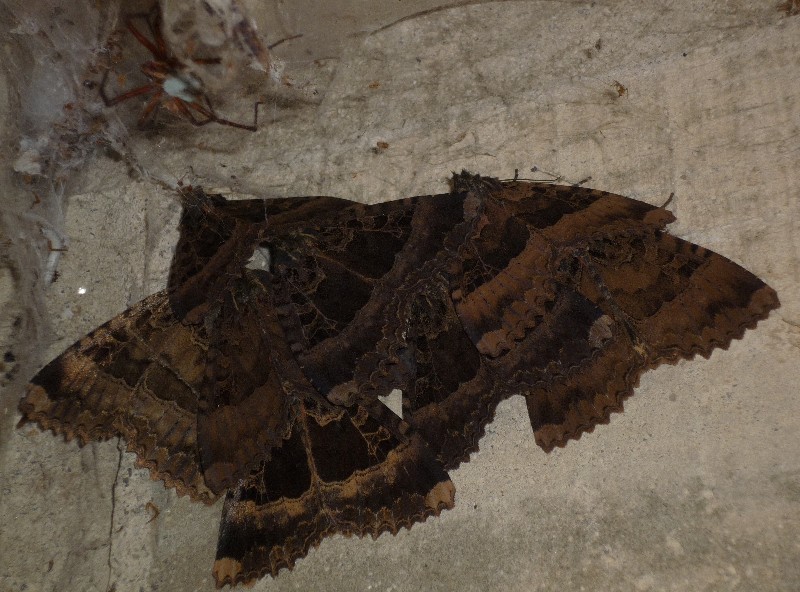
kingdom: Animalia
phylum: Arthropoda
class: Insecta
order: Lepidoptera
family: Noctuidae
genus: Mormo
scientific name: Mormo maura
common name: Old lady
